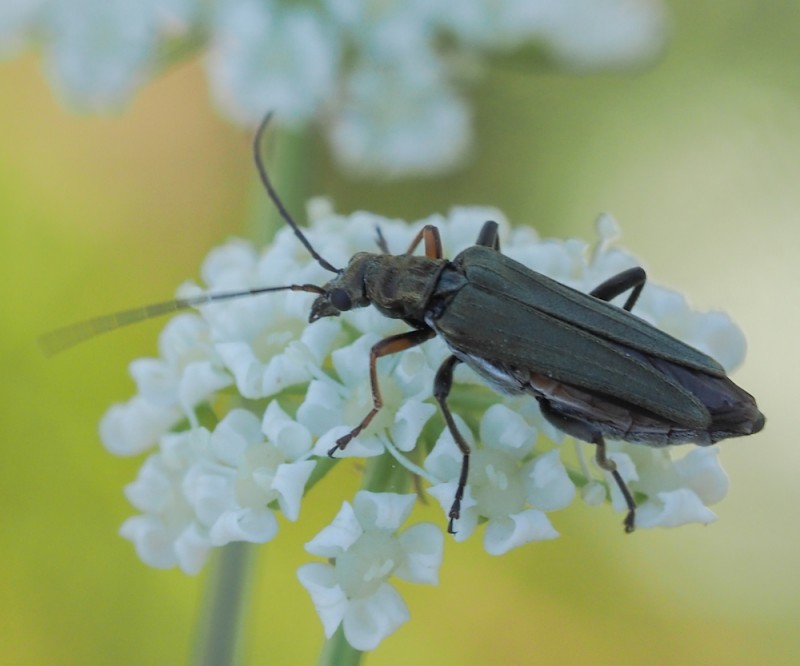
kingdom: Animalia
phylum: Arthropoda
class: Insecta
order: Coleoptera
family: Oedemeridae
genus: Oedemera
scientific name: Oedemera flavipes
